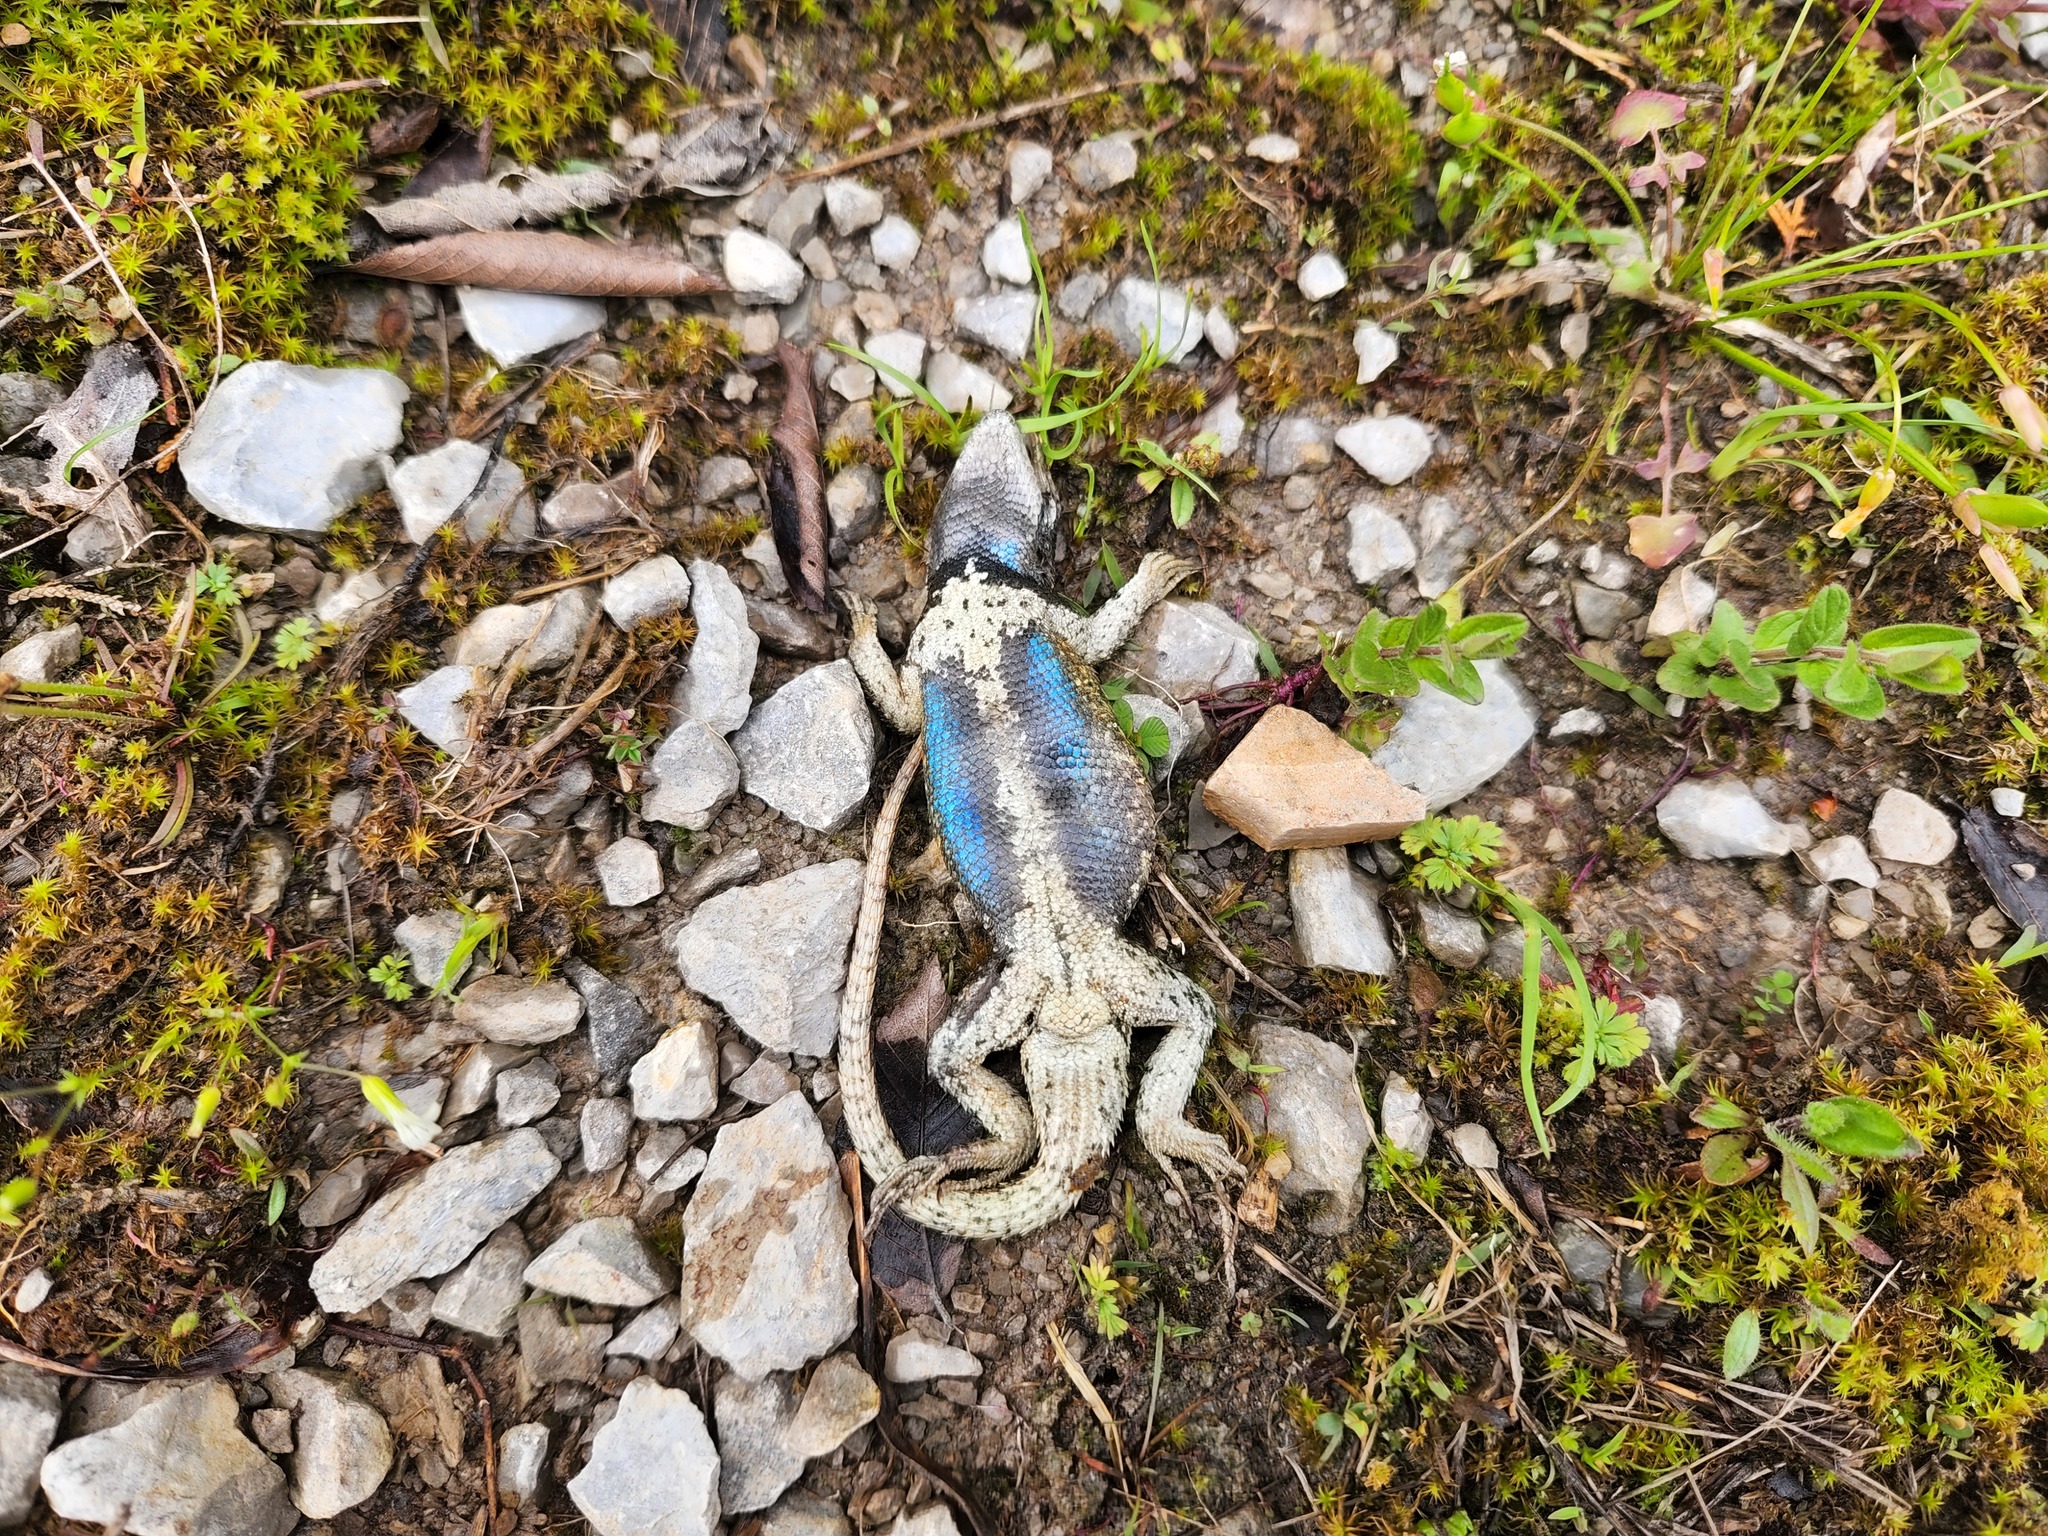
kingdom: Animalia
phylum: Chordata
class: Squamata
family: Phrynosomatidae
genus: Sceloporus
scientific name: Sceloporus undulatus
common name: Eastern fence lizard
